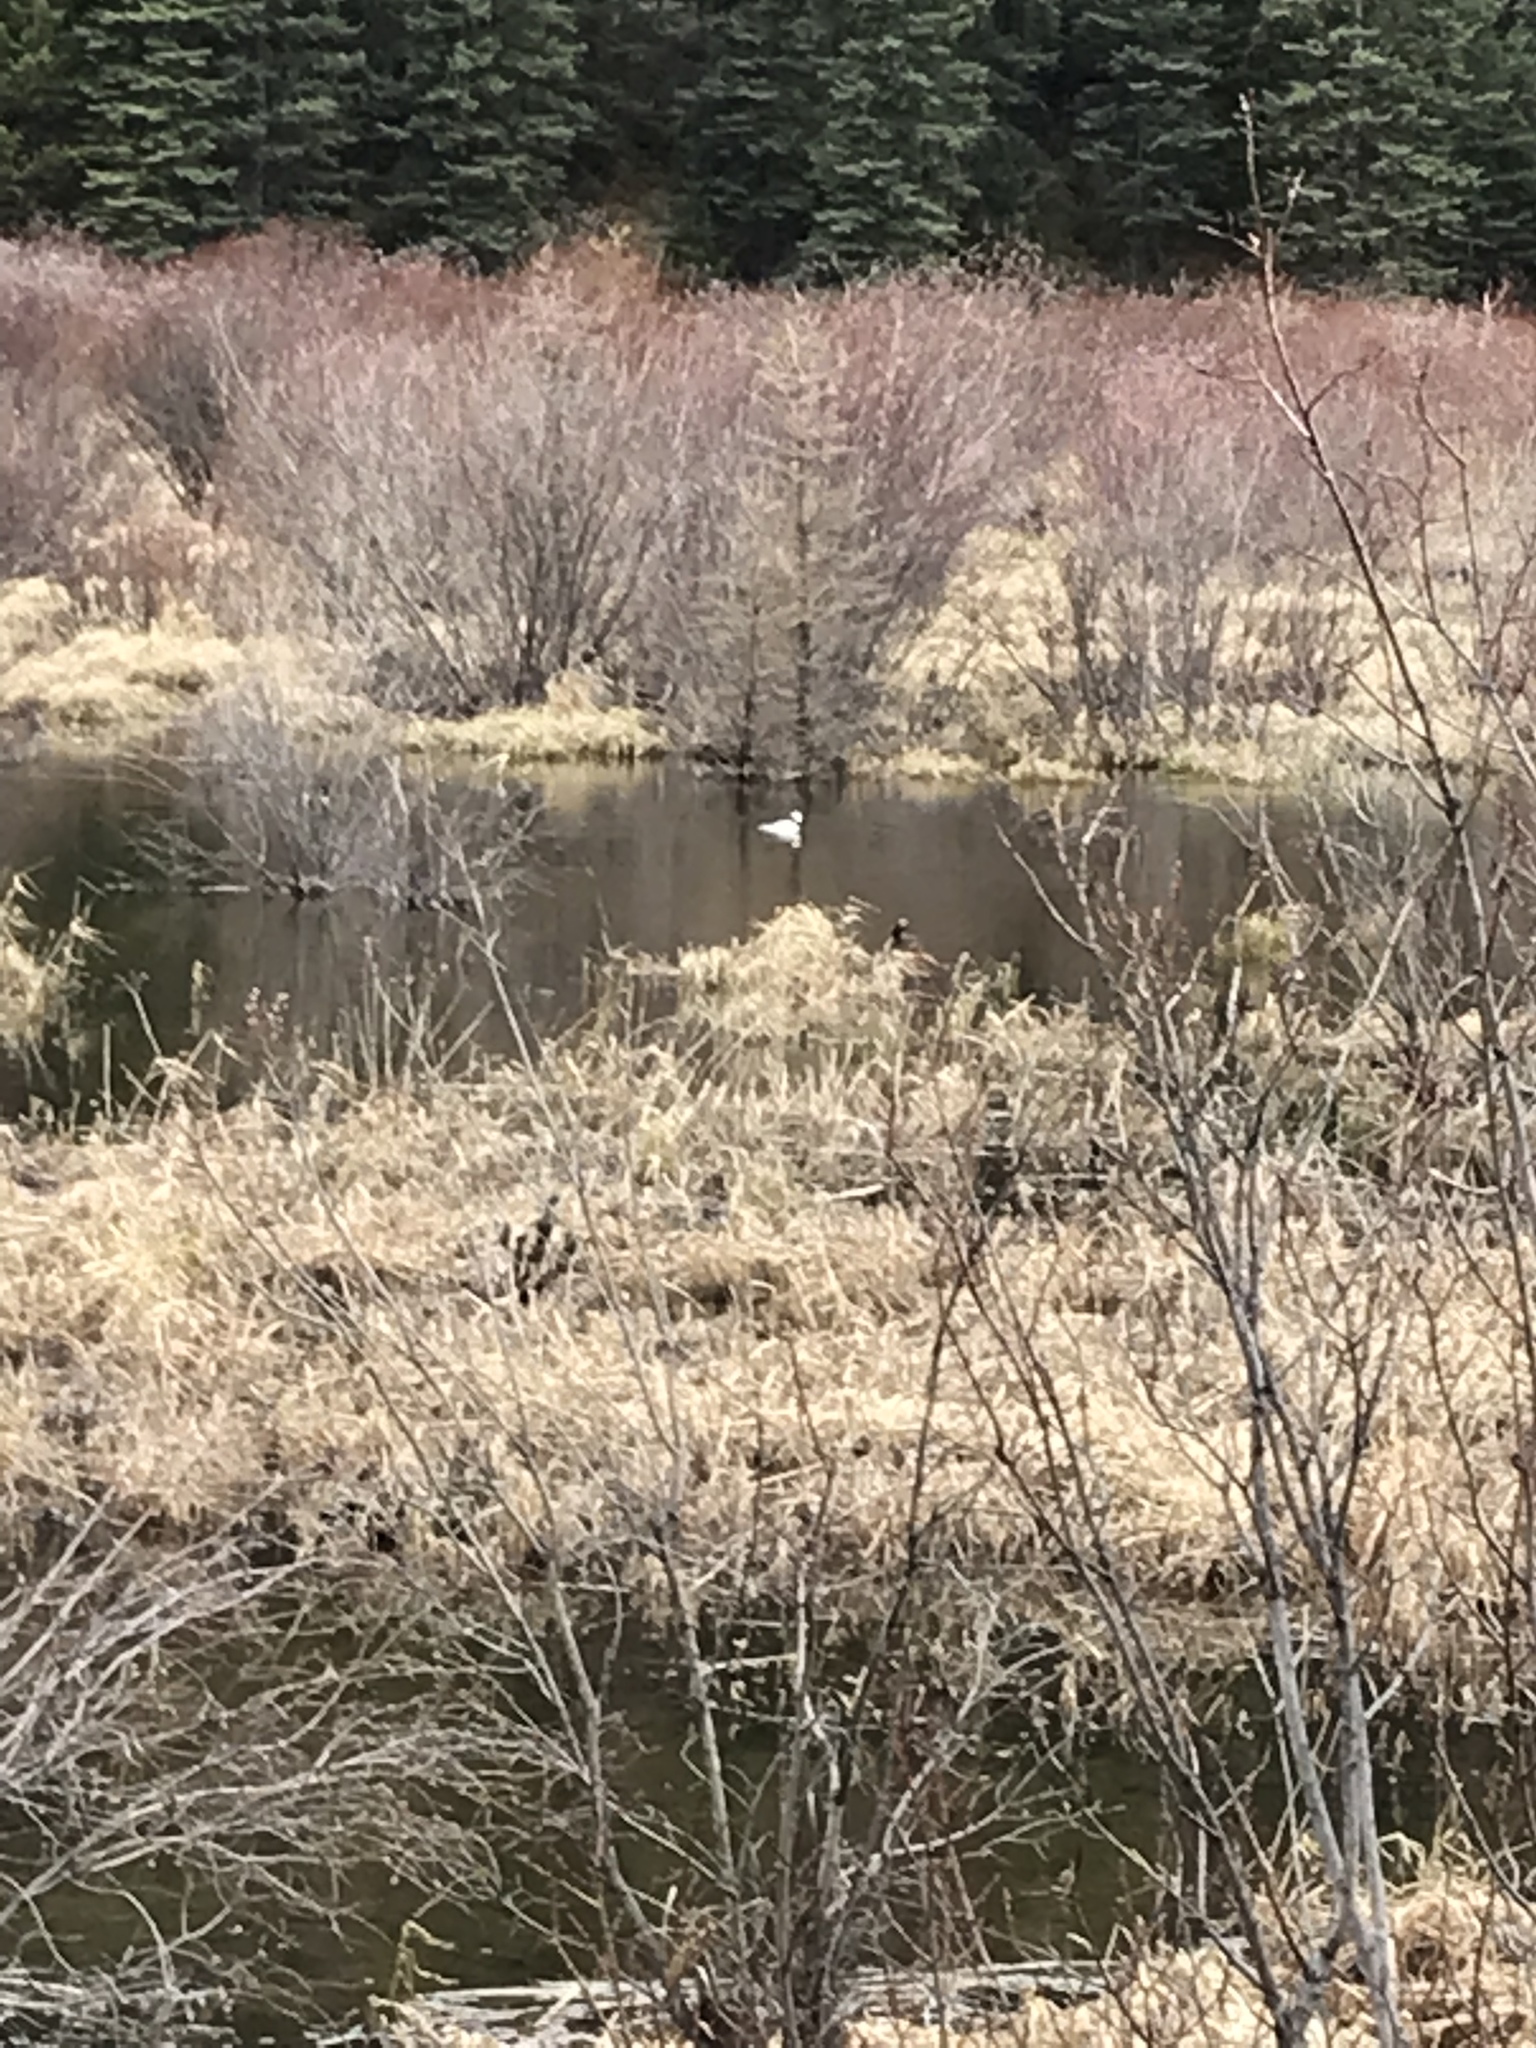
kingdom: Animalia
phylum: Chordata
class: Aves
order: Anseriformes
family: Anatidae
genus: Bucephala
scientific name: Bucephala albeola
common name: Bufflehead
